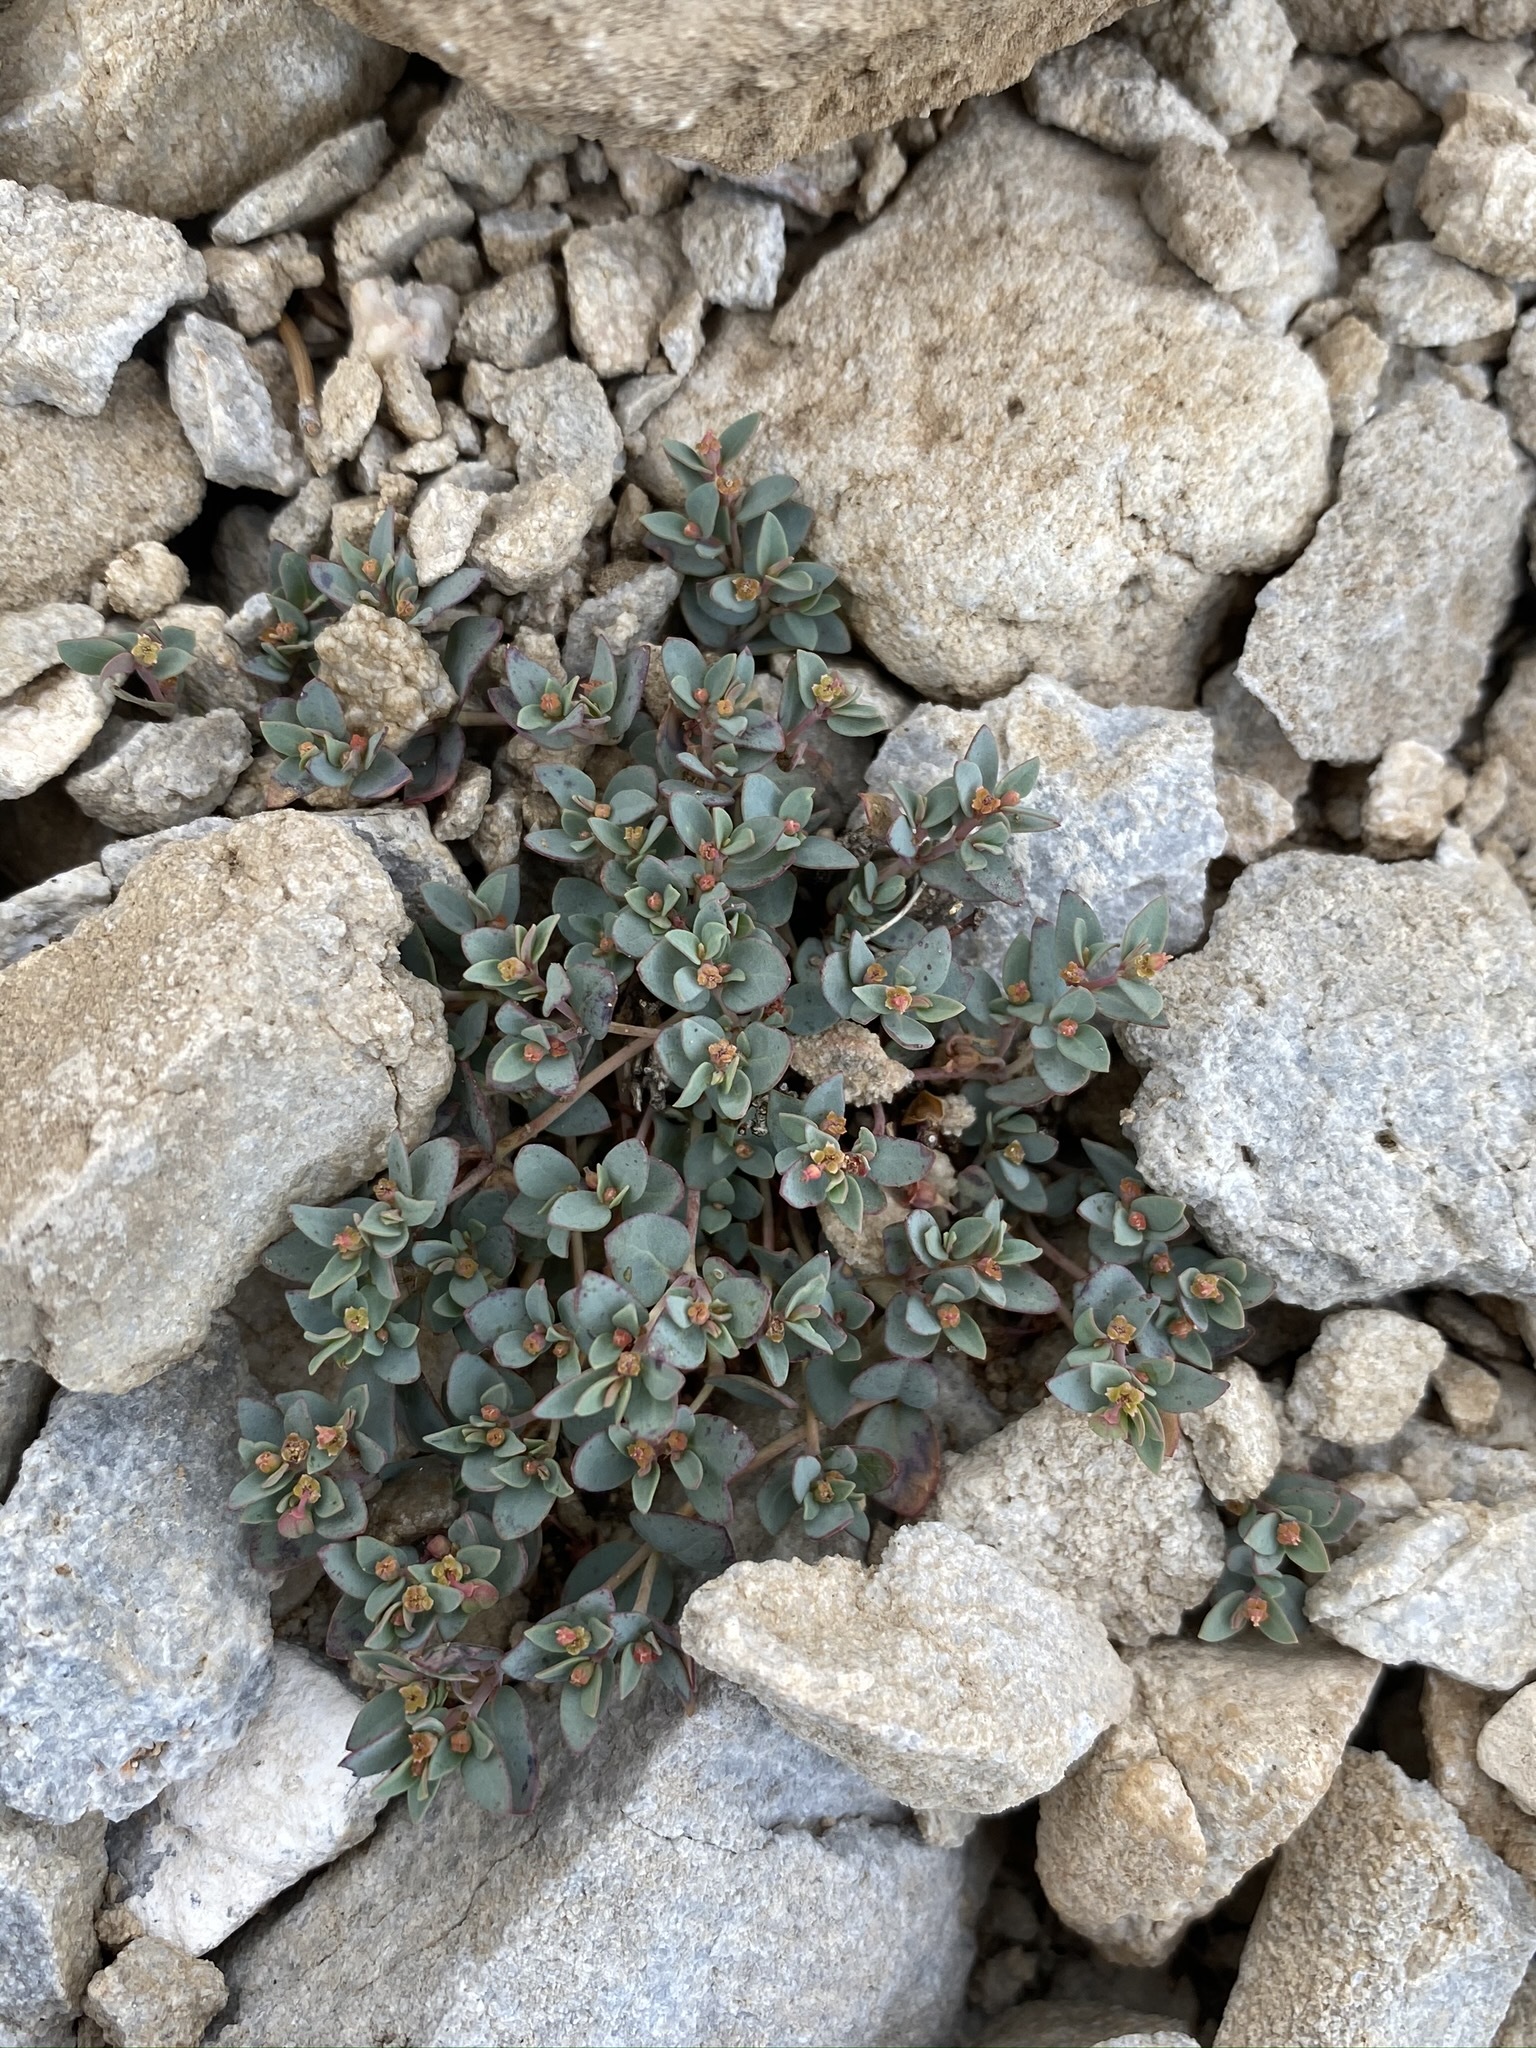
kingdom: Plantae
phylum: Tracheophyta
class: Magnoliopsida
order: Malpighiales
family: Euphorbiaceae
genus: Euphorbia
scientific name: Euphorbia fendleri
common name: Fendler's euphorbia
